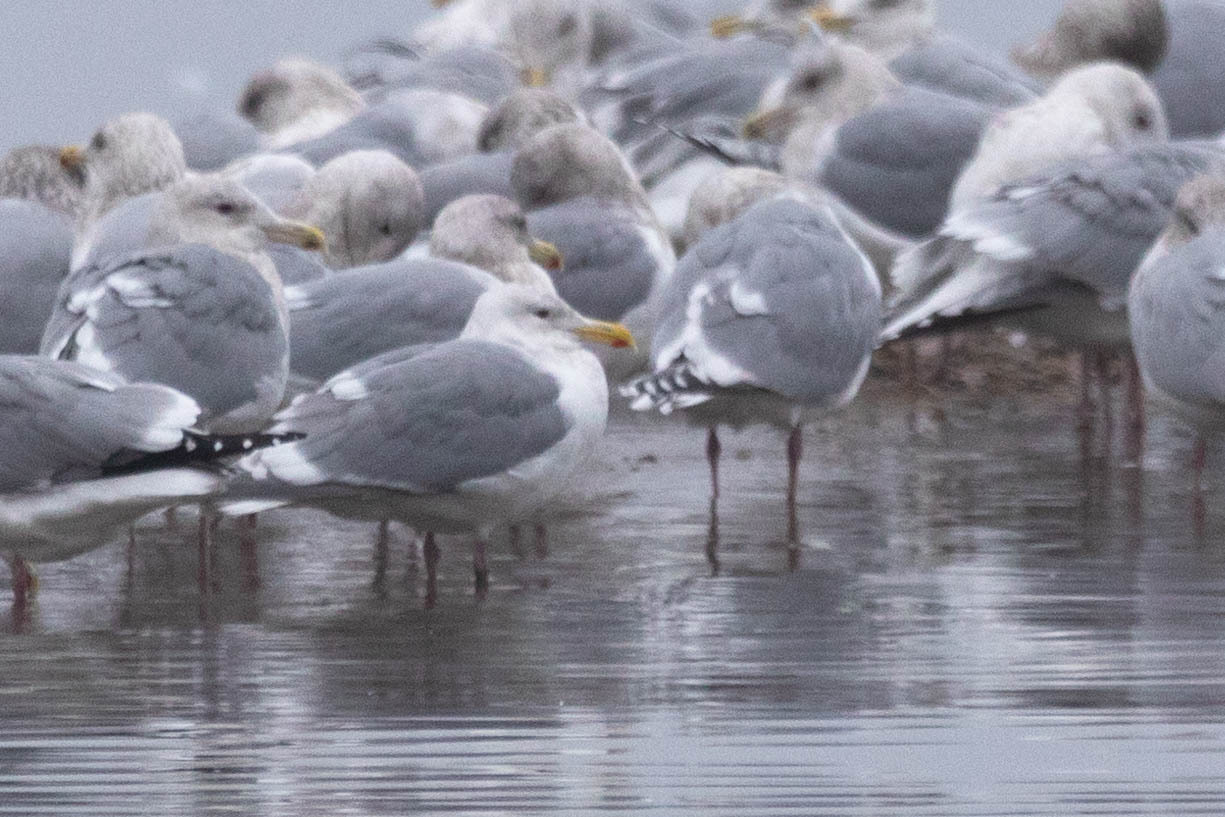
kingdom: Animalia
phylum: Chordata
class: Aves
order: Charadriiformes
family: Laridae
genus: Larus
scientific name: Larus glaucescens
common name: Glaucous-winged gull
